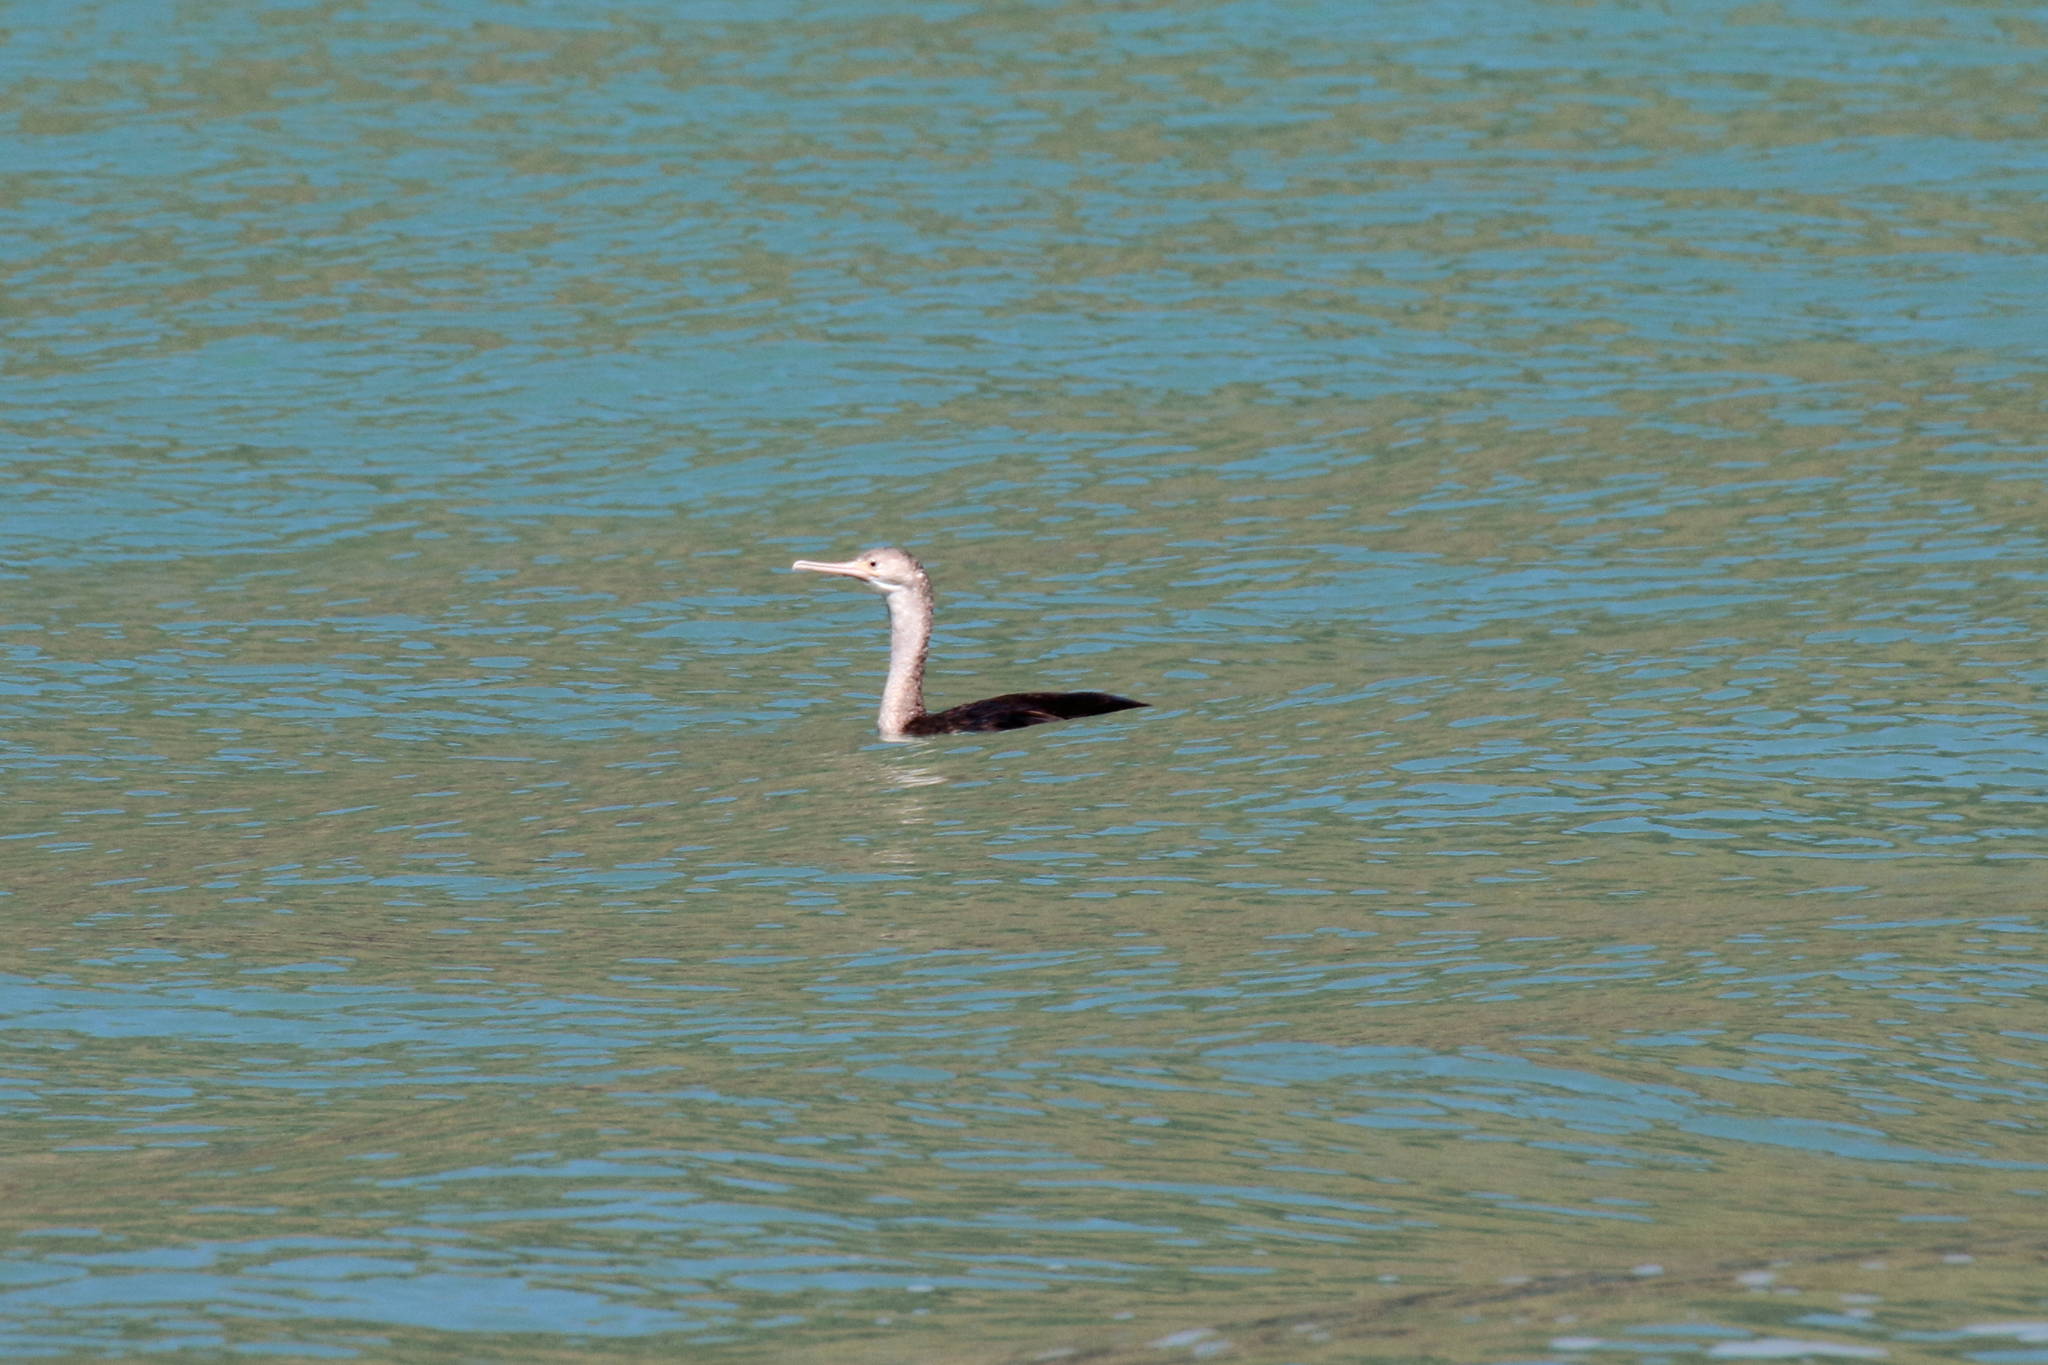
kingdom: Animalia
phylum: Chordata
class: Aves
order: Suliformes
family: Phalacrocoracidae
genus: Phalacrocorax
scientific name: Phalacrocorax punctatus
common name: Spotted shag
